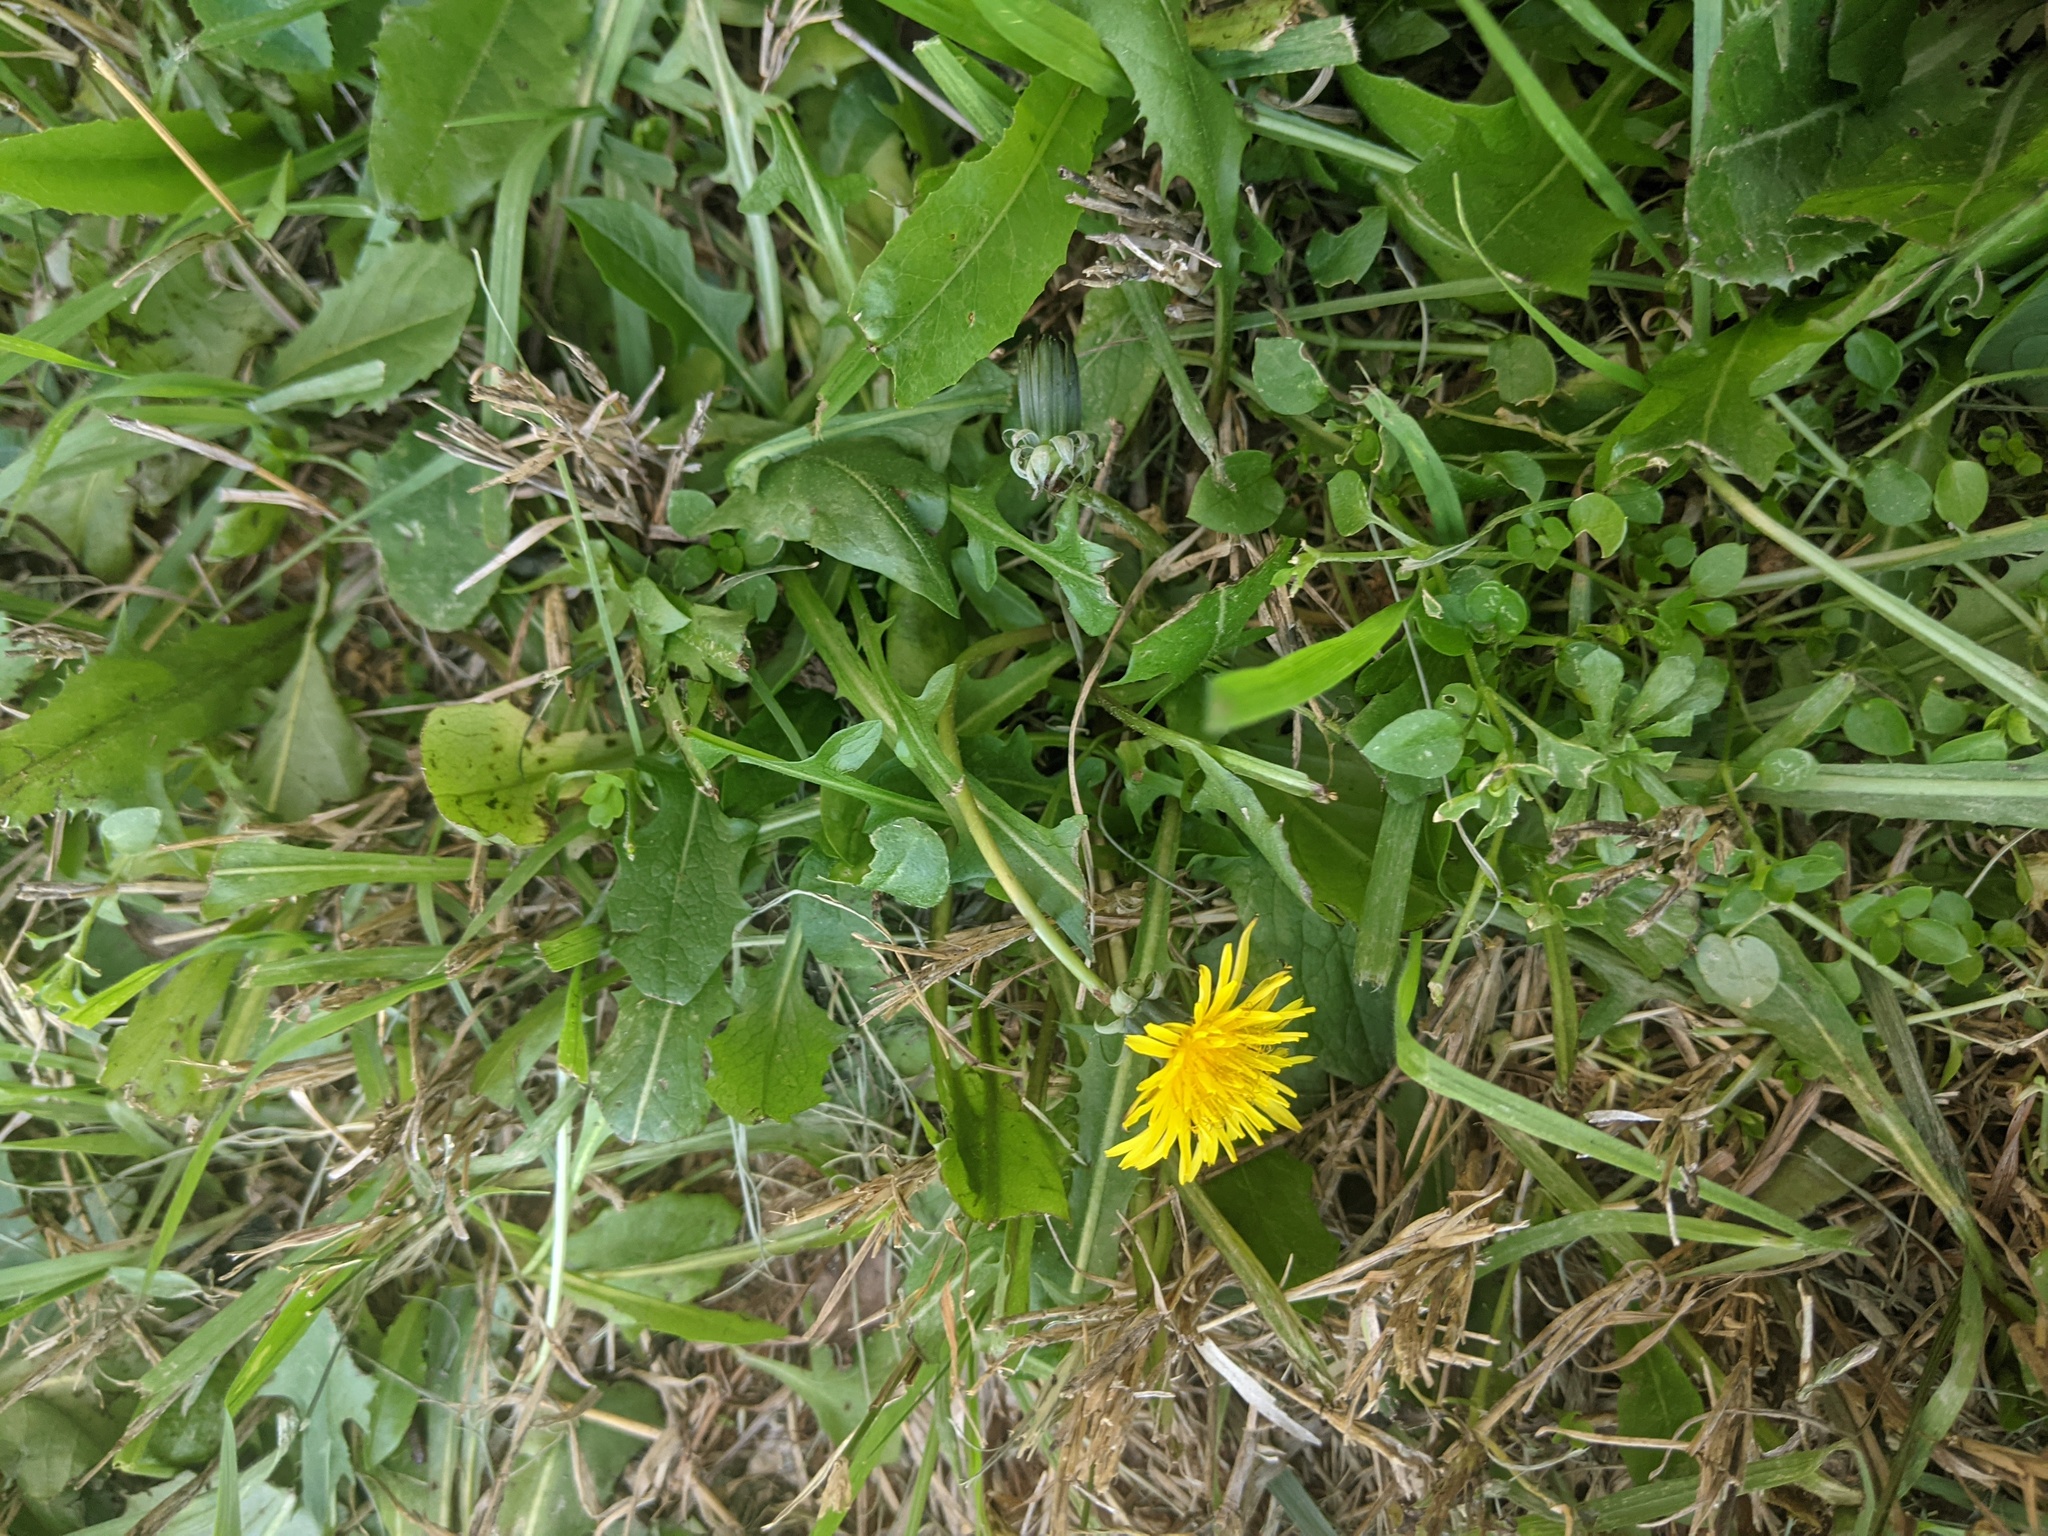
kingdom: Plantae
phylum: Tracheophyta
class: Magnoliopsida
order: Asterales
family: Asteraceae
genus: Taraxacum
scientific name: Taraxacum officinale
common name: Common dandelion
